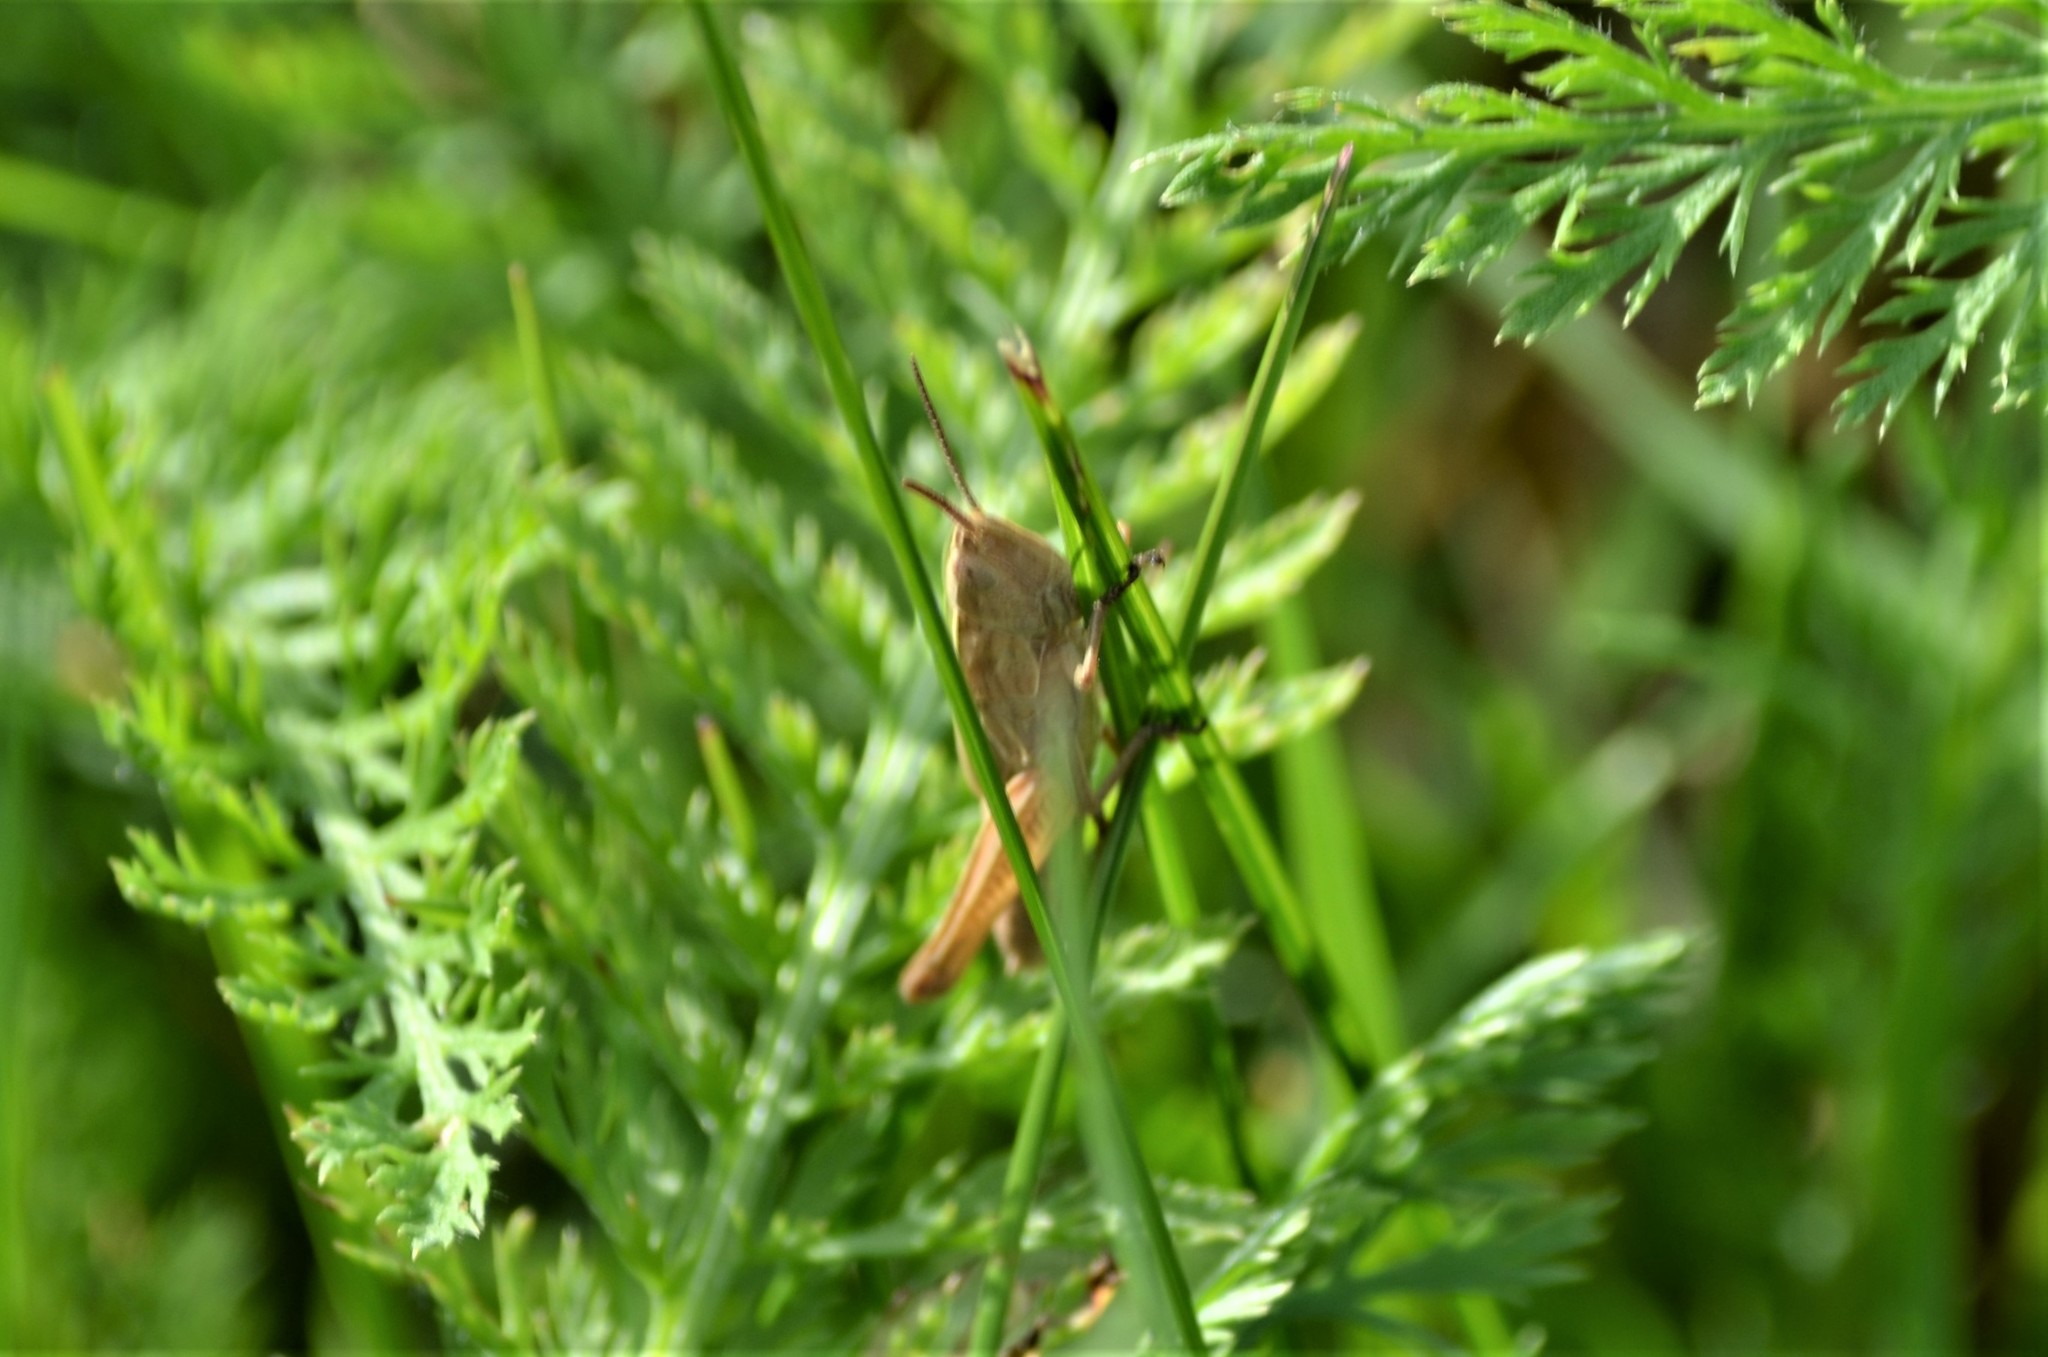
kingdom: Animalia
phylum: Arthropoda
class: Insecta
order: Orthoptera
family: Acrididae
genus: Chorthippus
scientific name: Chorthippus albomarginatus
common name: Lesser marsh grasshopper
